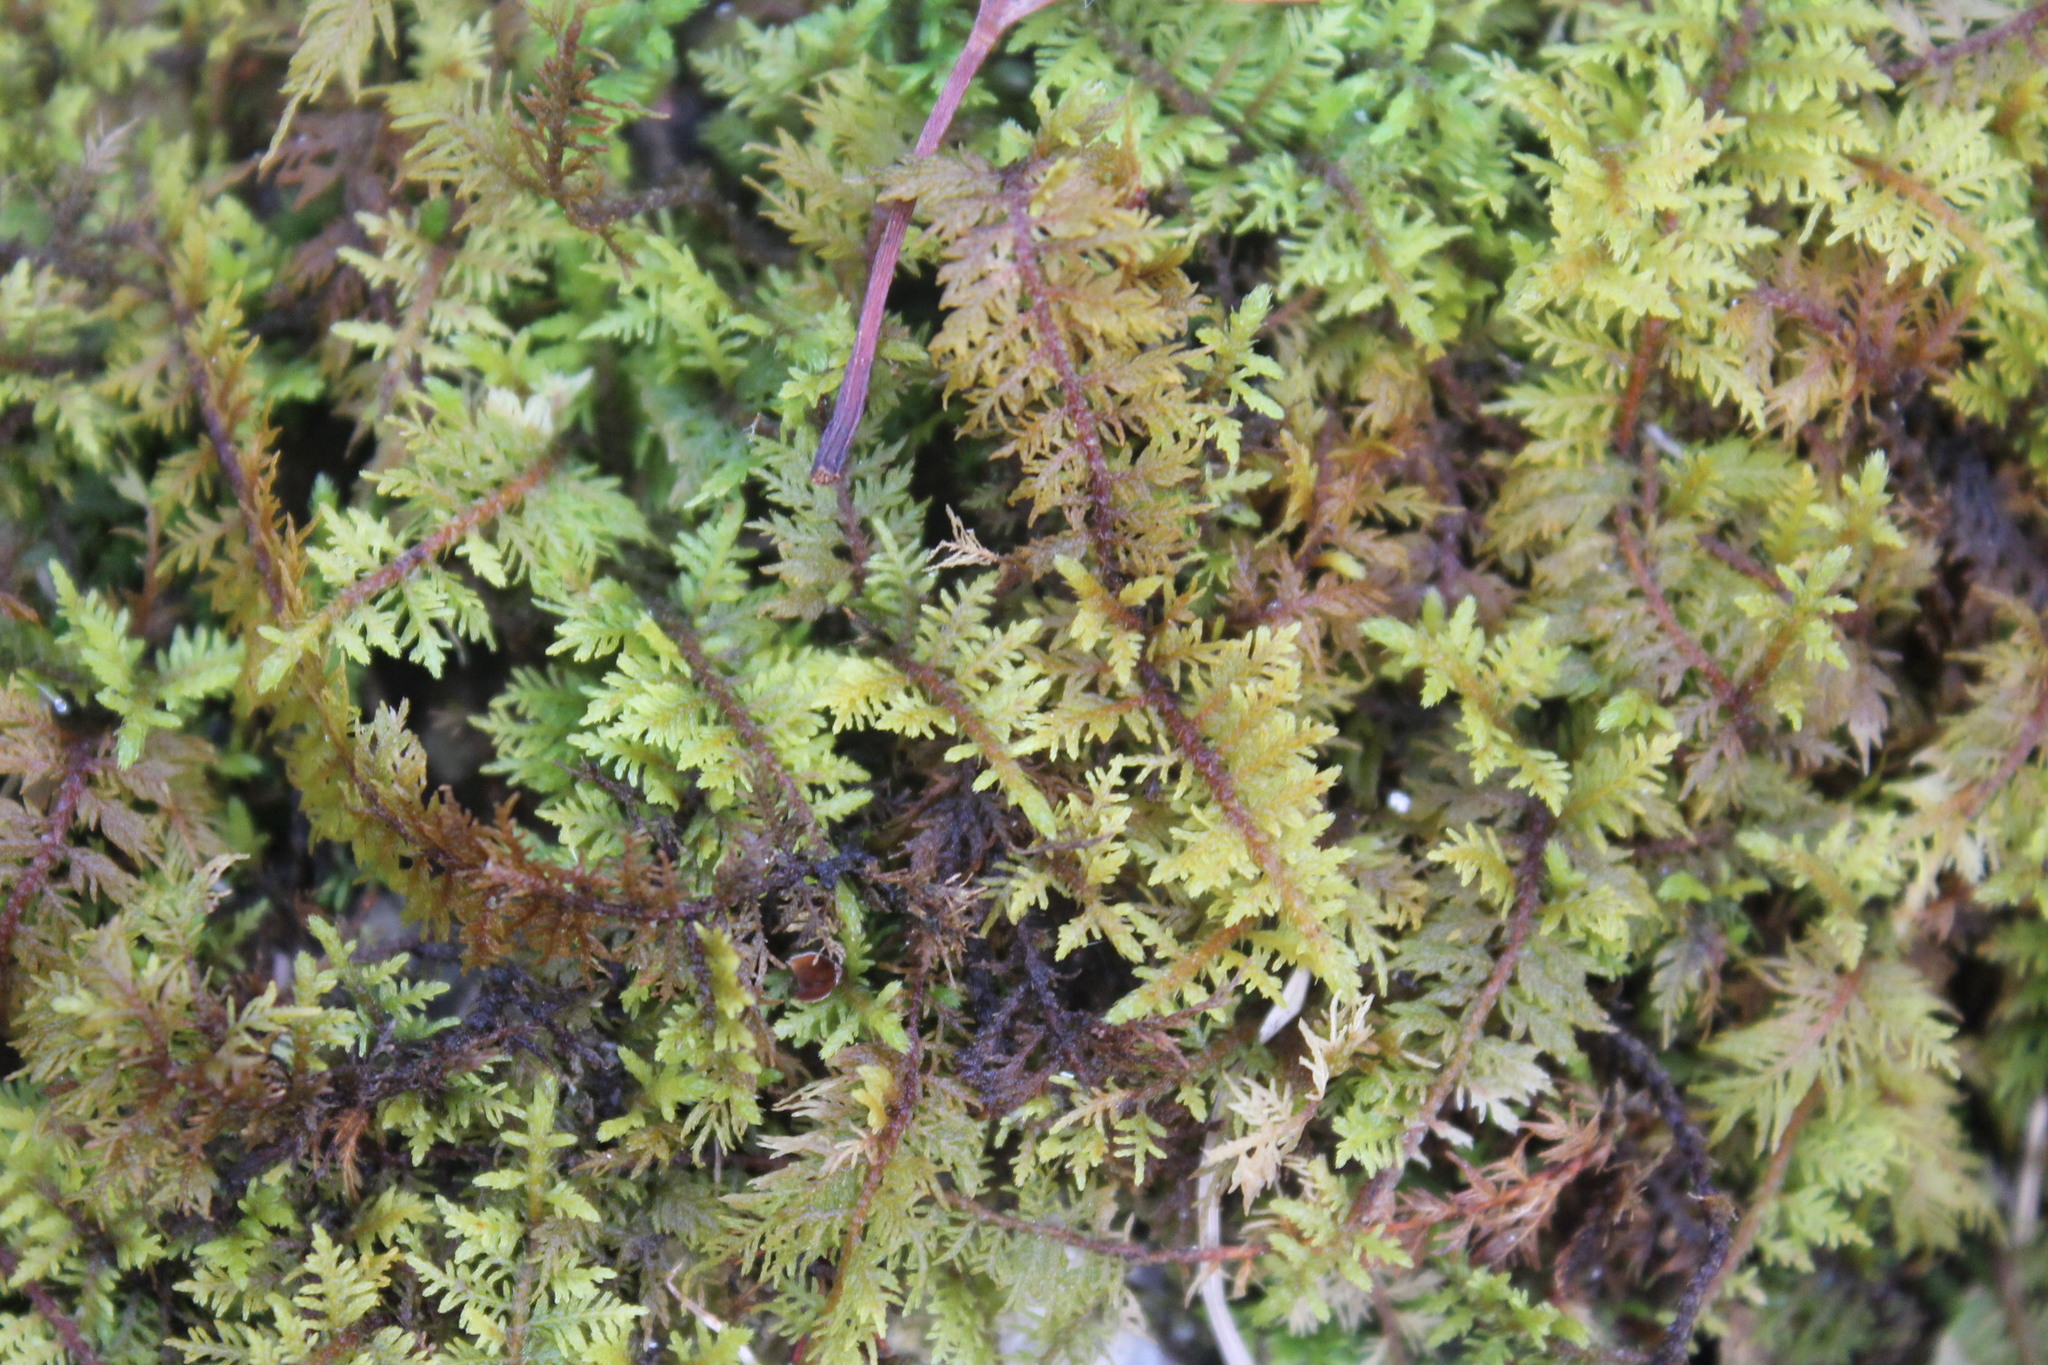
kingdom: Plantae
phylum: Bryophyta
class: Bryopsida
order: Hypnales
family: Thuidiaceae
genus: Thuidium
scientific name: Thuidium delicatulum
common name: Delicate fern moss
